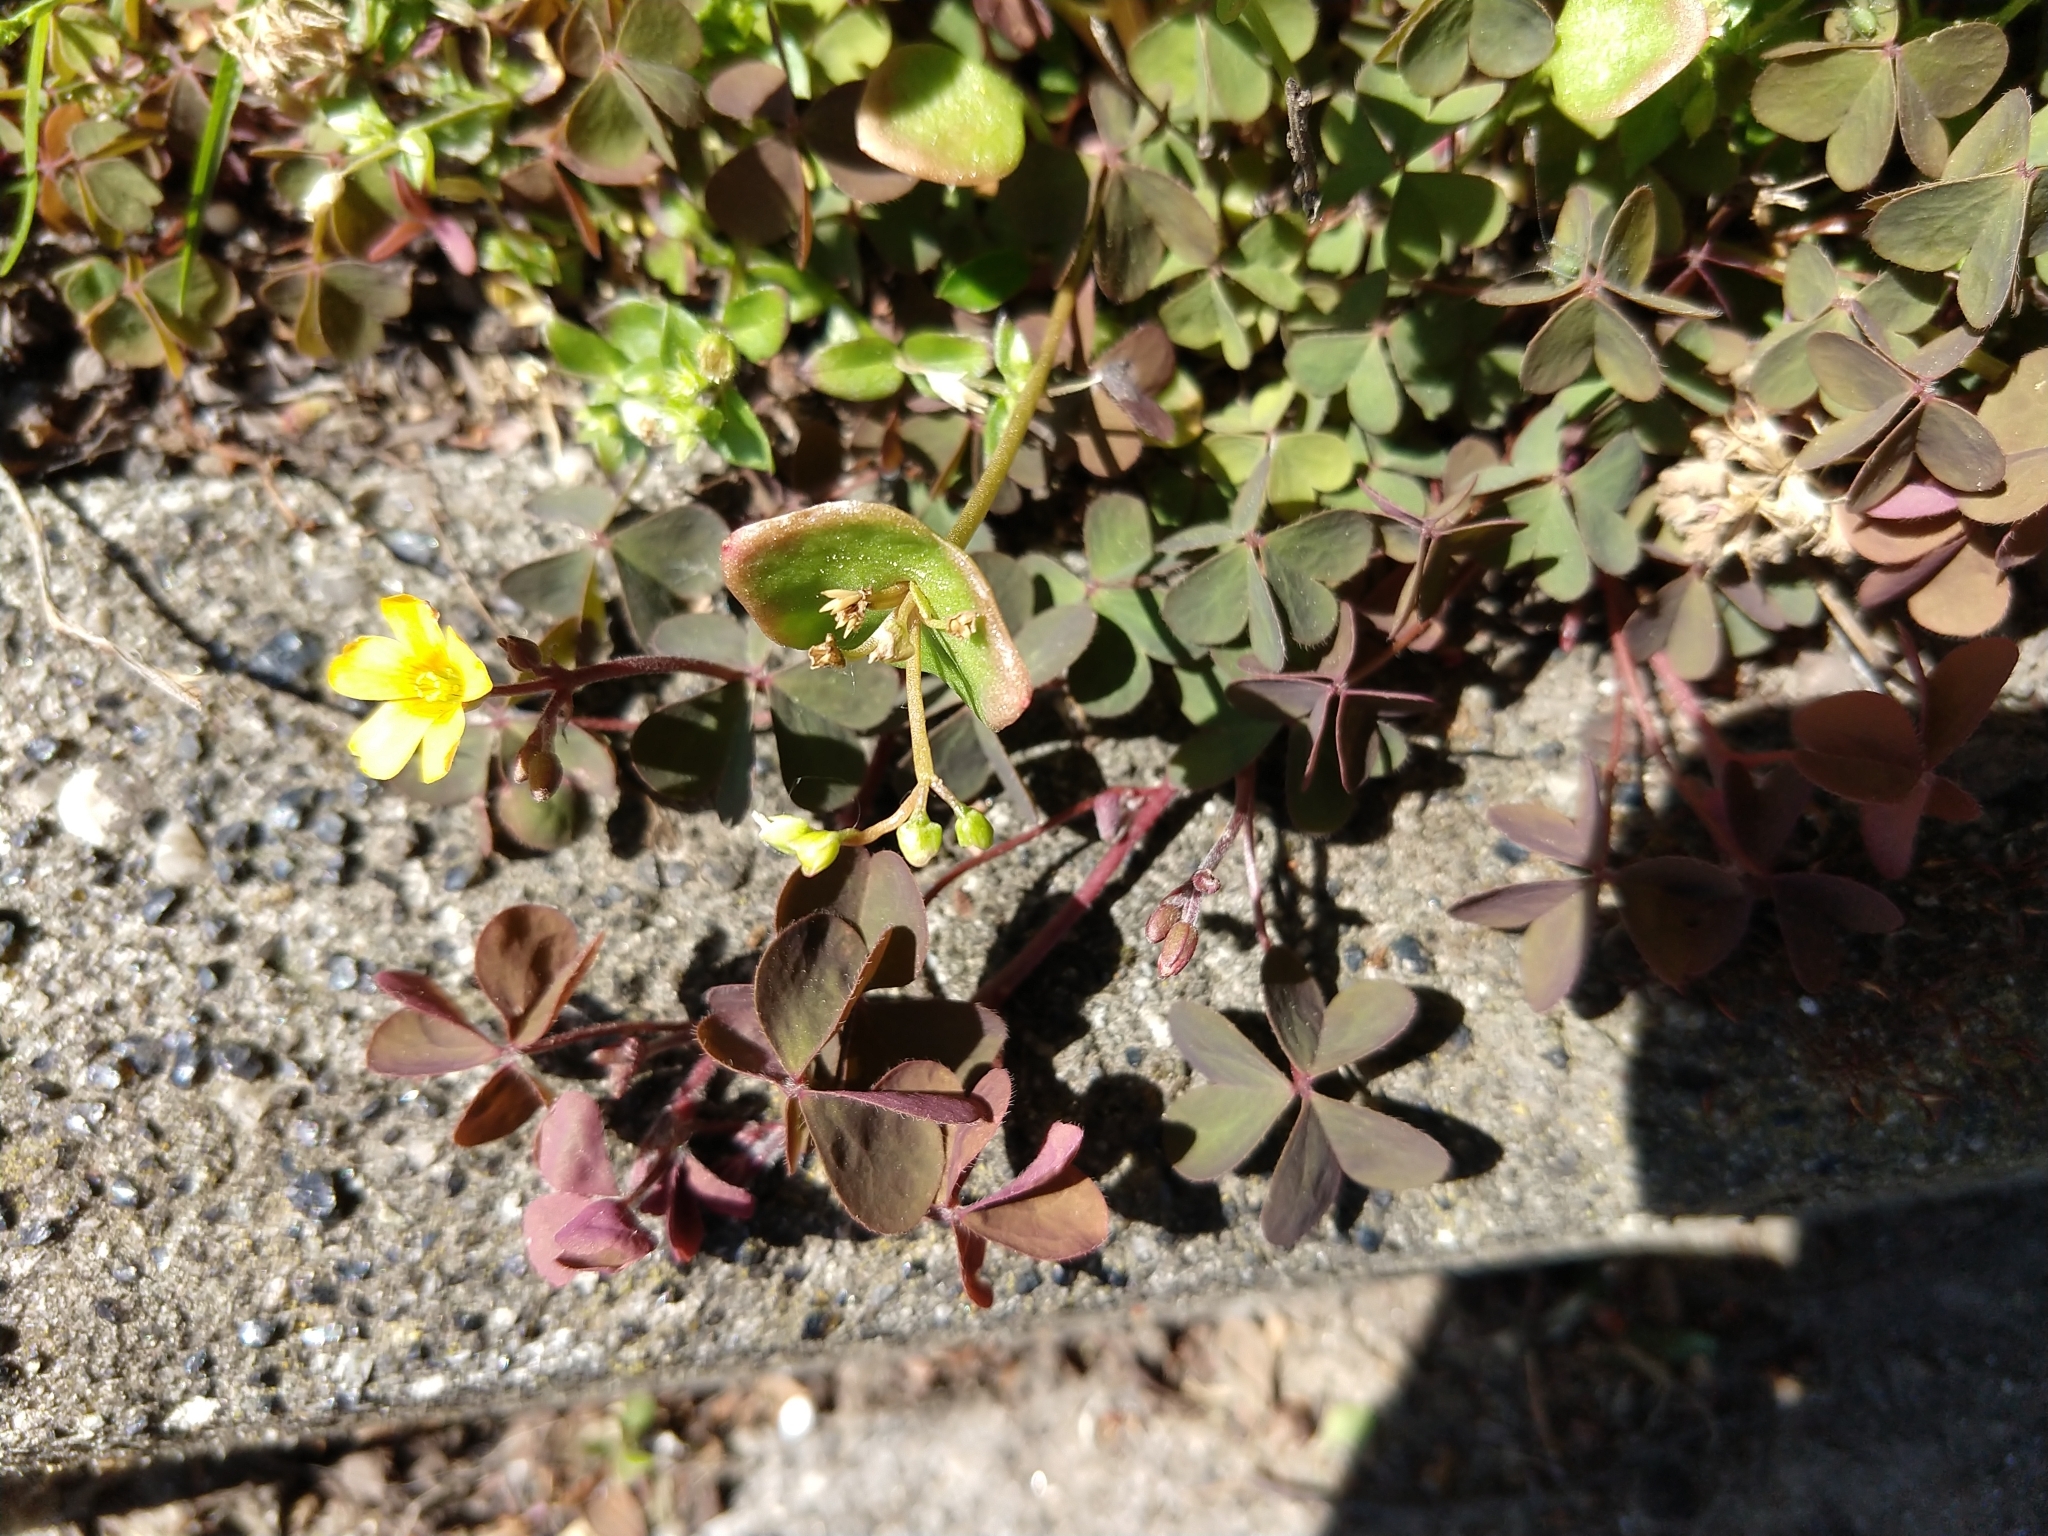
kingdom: Plantae
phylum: Tracheophyta
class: Magnoliopsida
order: Oxalidales
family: Oxalidaceae
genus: Oxalis
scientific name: Oxalis corniculata
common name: Procumbent yellow-sorrel
